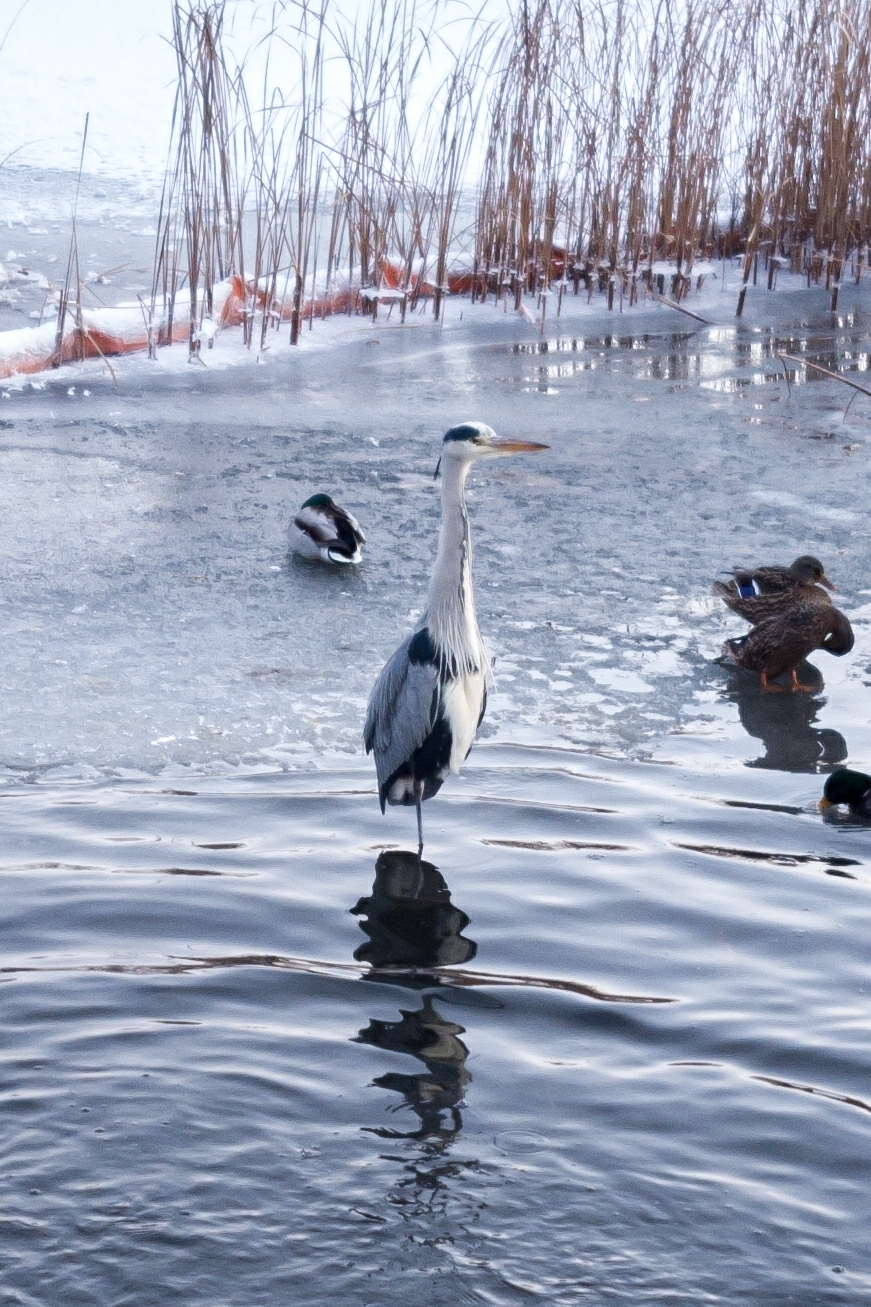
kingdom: Animalia
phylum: Chordata
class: Aves
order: Pelecaniformes
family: Ardeidae
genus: Ardea
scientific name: Ardea cinerea
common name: Grey heron
